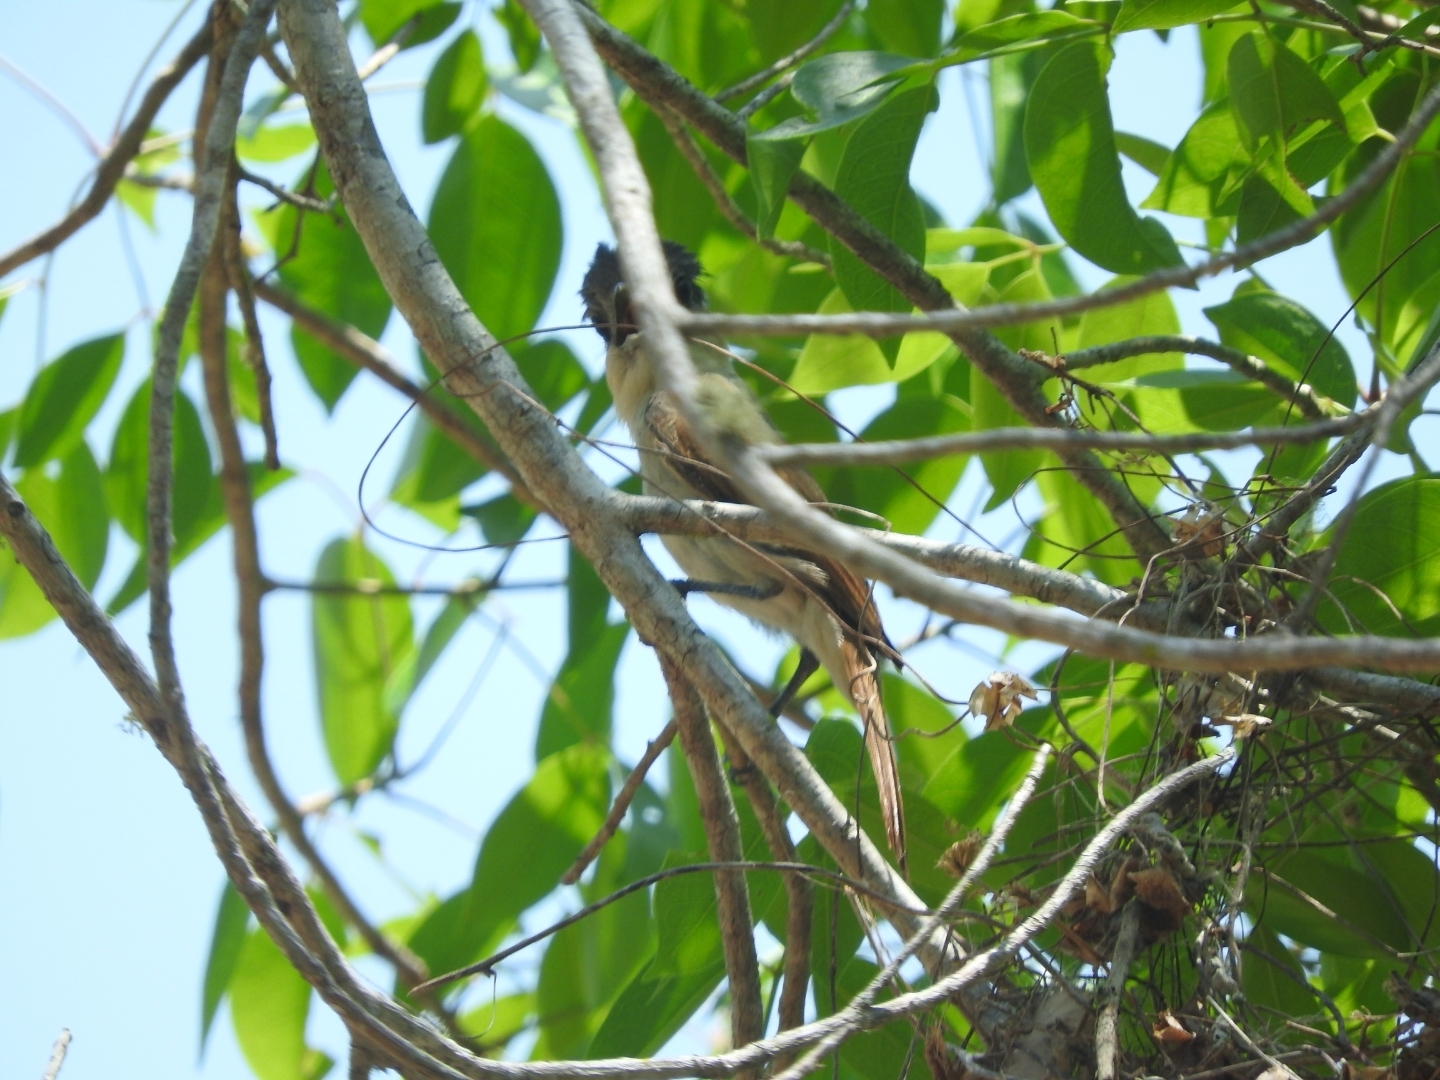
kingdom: Animalia
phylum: Chordata
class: Aves
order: Passeriformes
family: Cotingidae
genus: Pachyramphus
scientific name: Pachyramphus aglaiae
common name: Rose-throated becard
